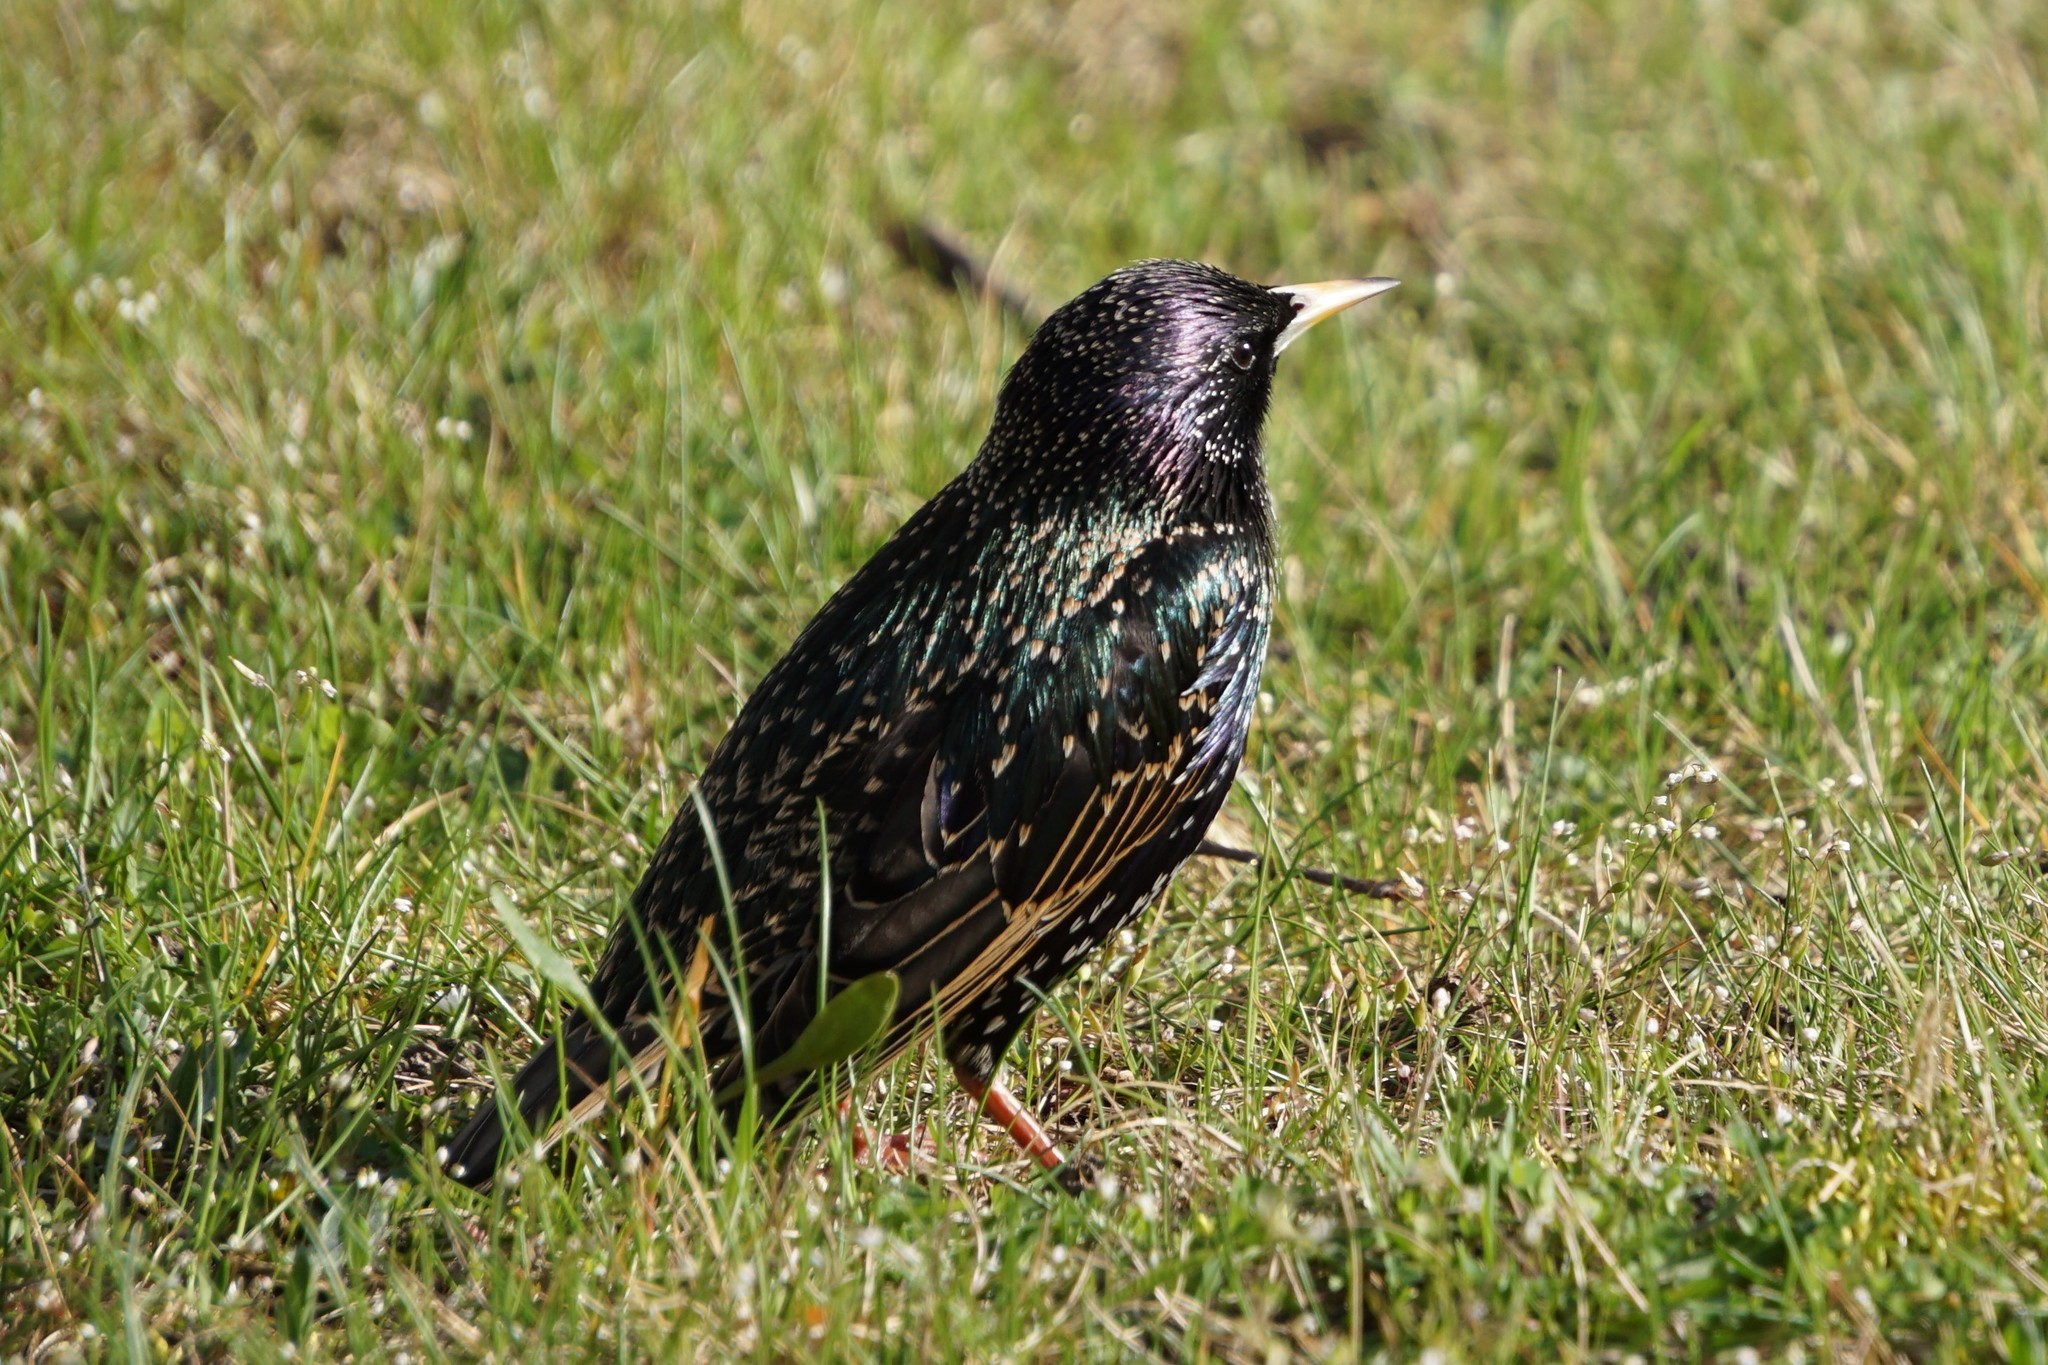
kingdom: Animalia
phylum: Chordata
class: Aves
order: Passeriformes
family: Sturnidae
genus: Sturnus
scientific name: Sturnus vulgaris
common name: Common starling
